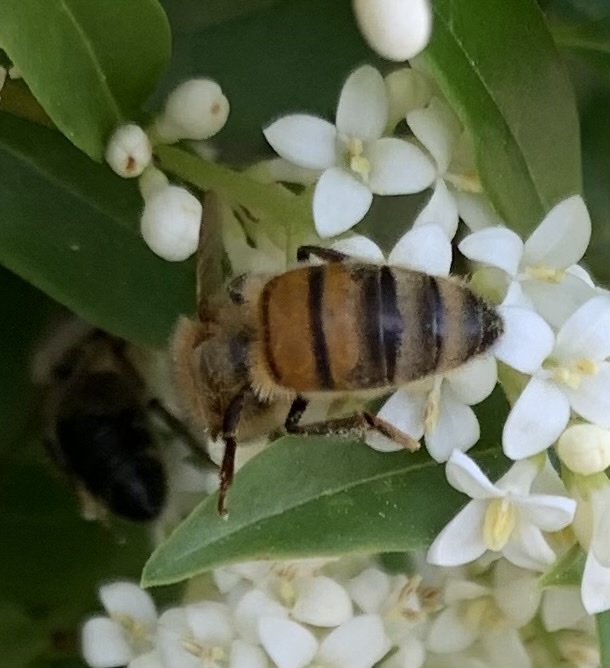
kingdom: Animalia
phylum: Arthropoda
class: Insecta
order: Hymenoptera
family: Apidae
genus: Apis
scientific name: Apis mellifera
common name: Honey bee
